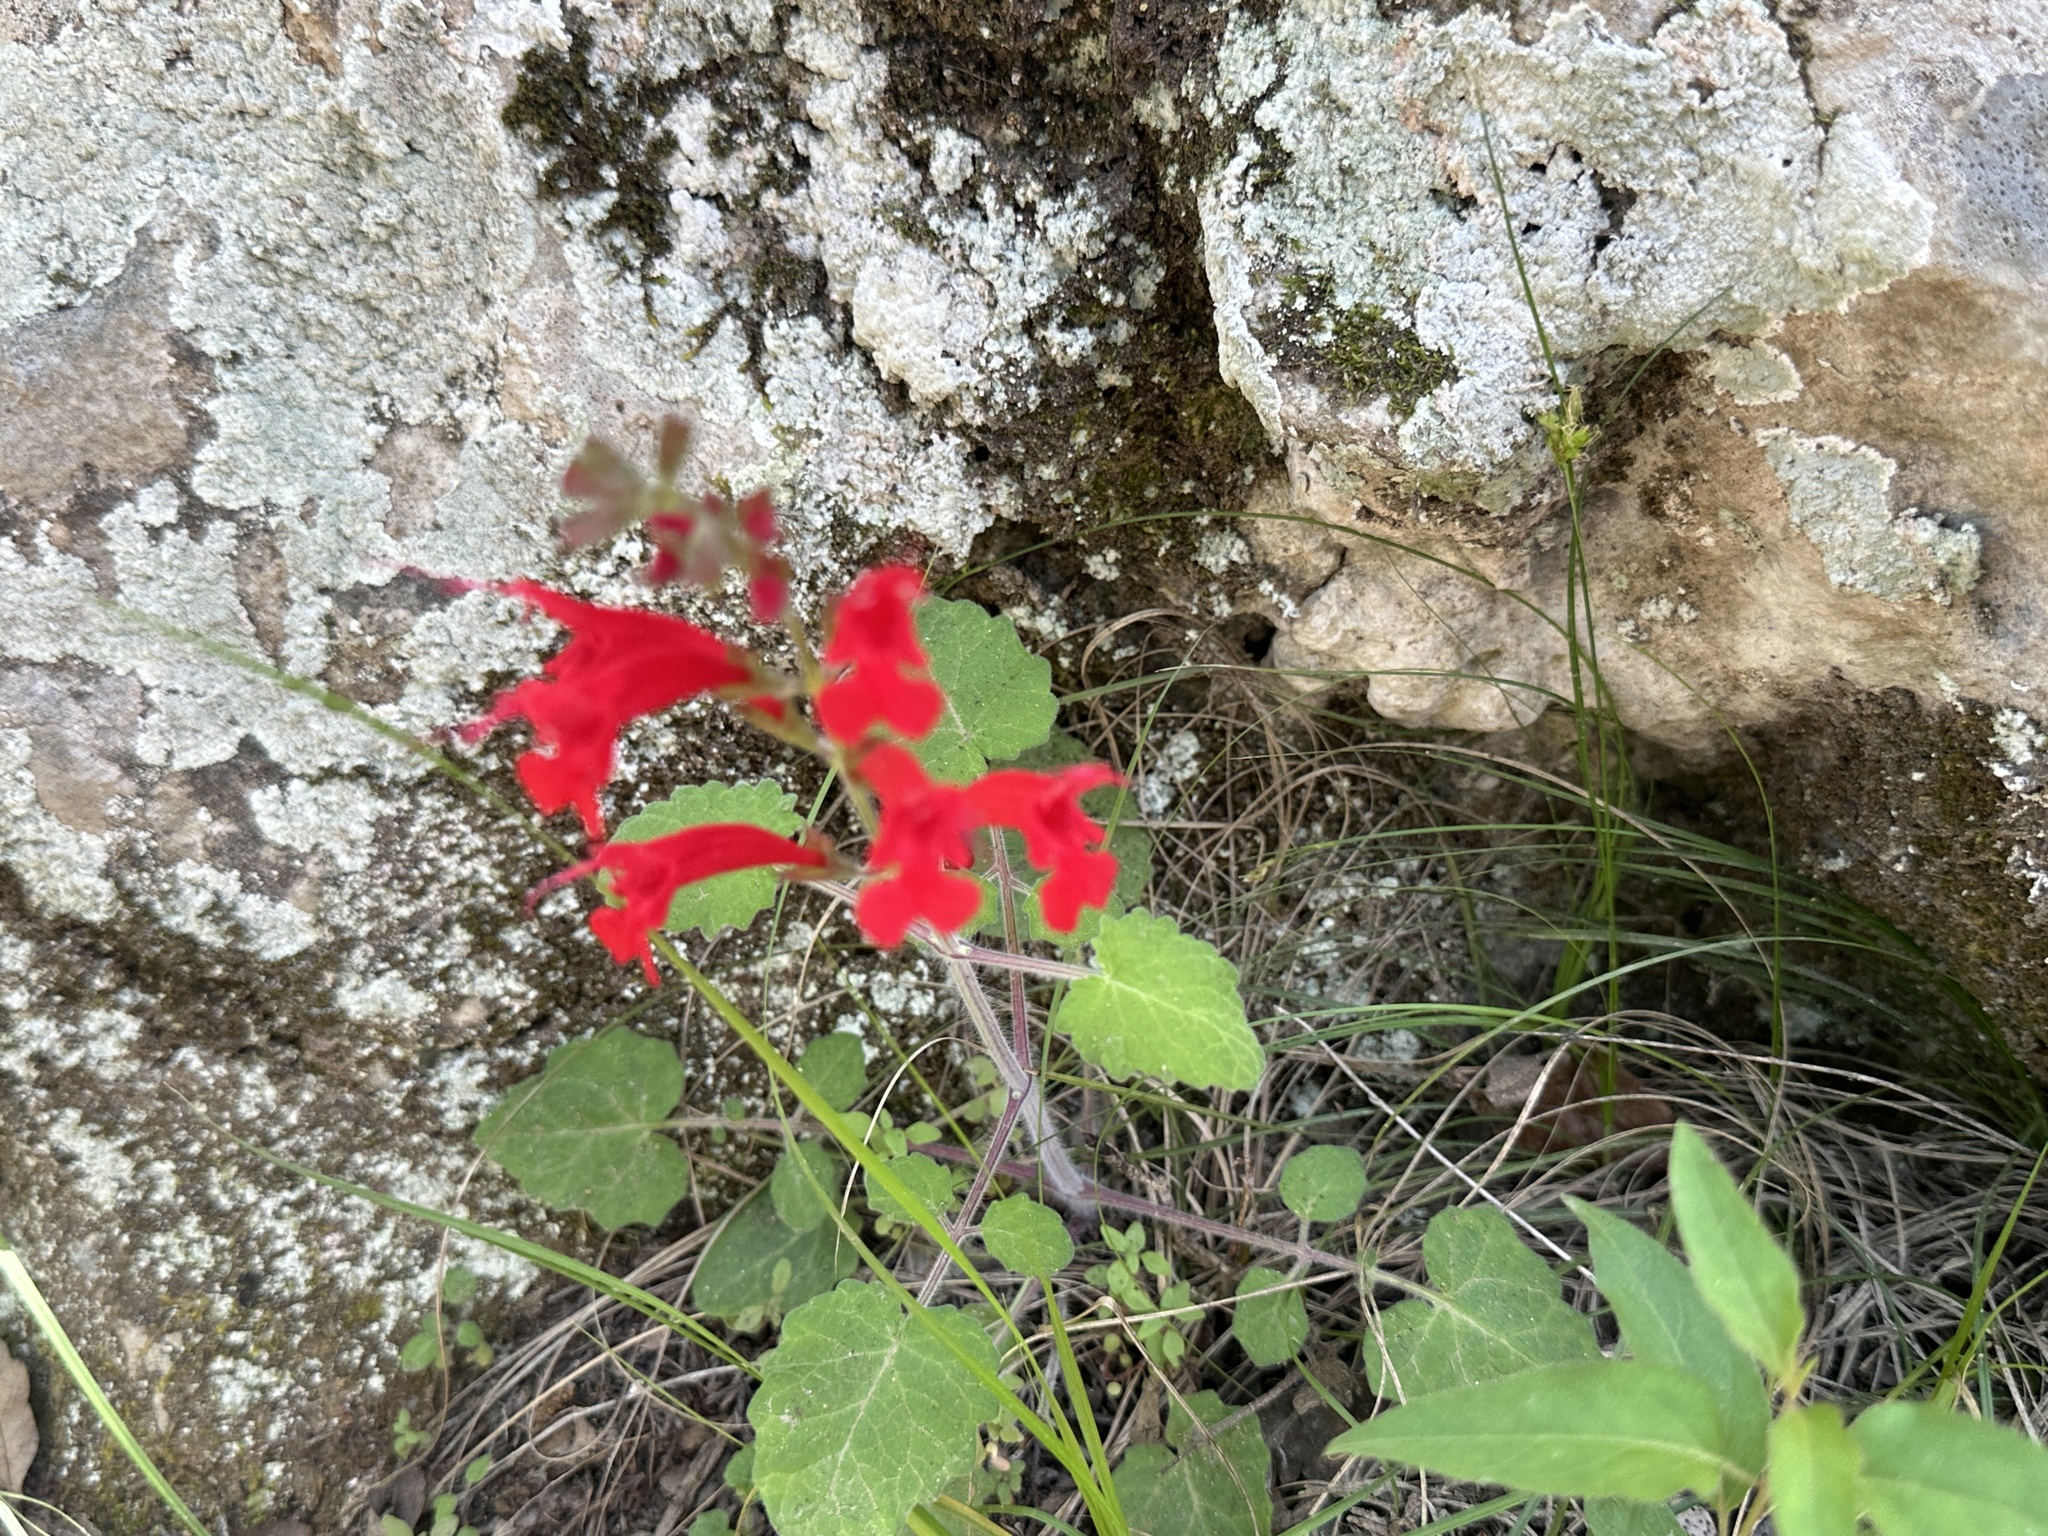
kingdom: Plantae
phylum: Tracheophyta
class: Magnoliopsida
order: Lamiales
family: Lamiaceae
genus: Salvia
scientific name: Salvia roemeriana
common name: Cedar sage
